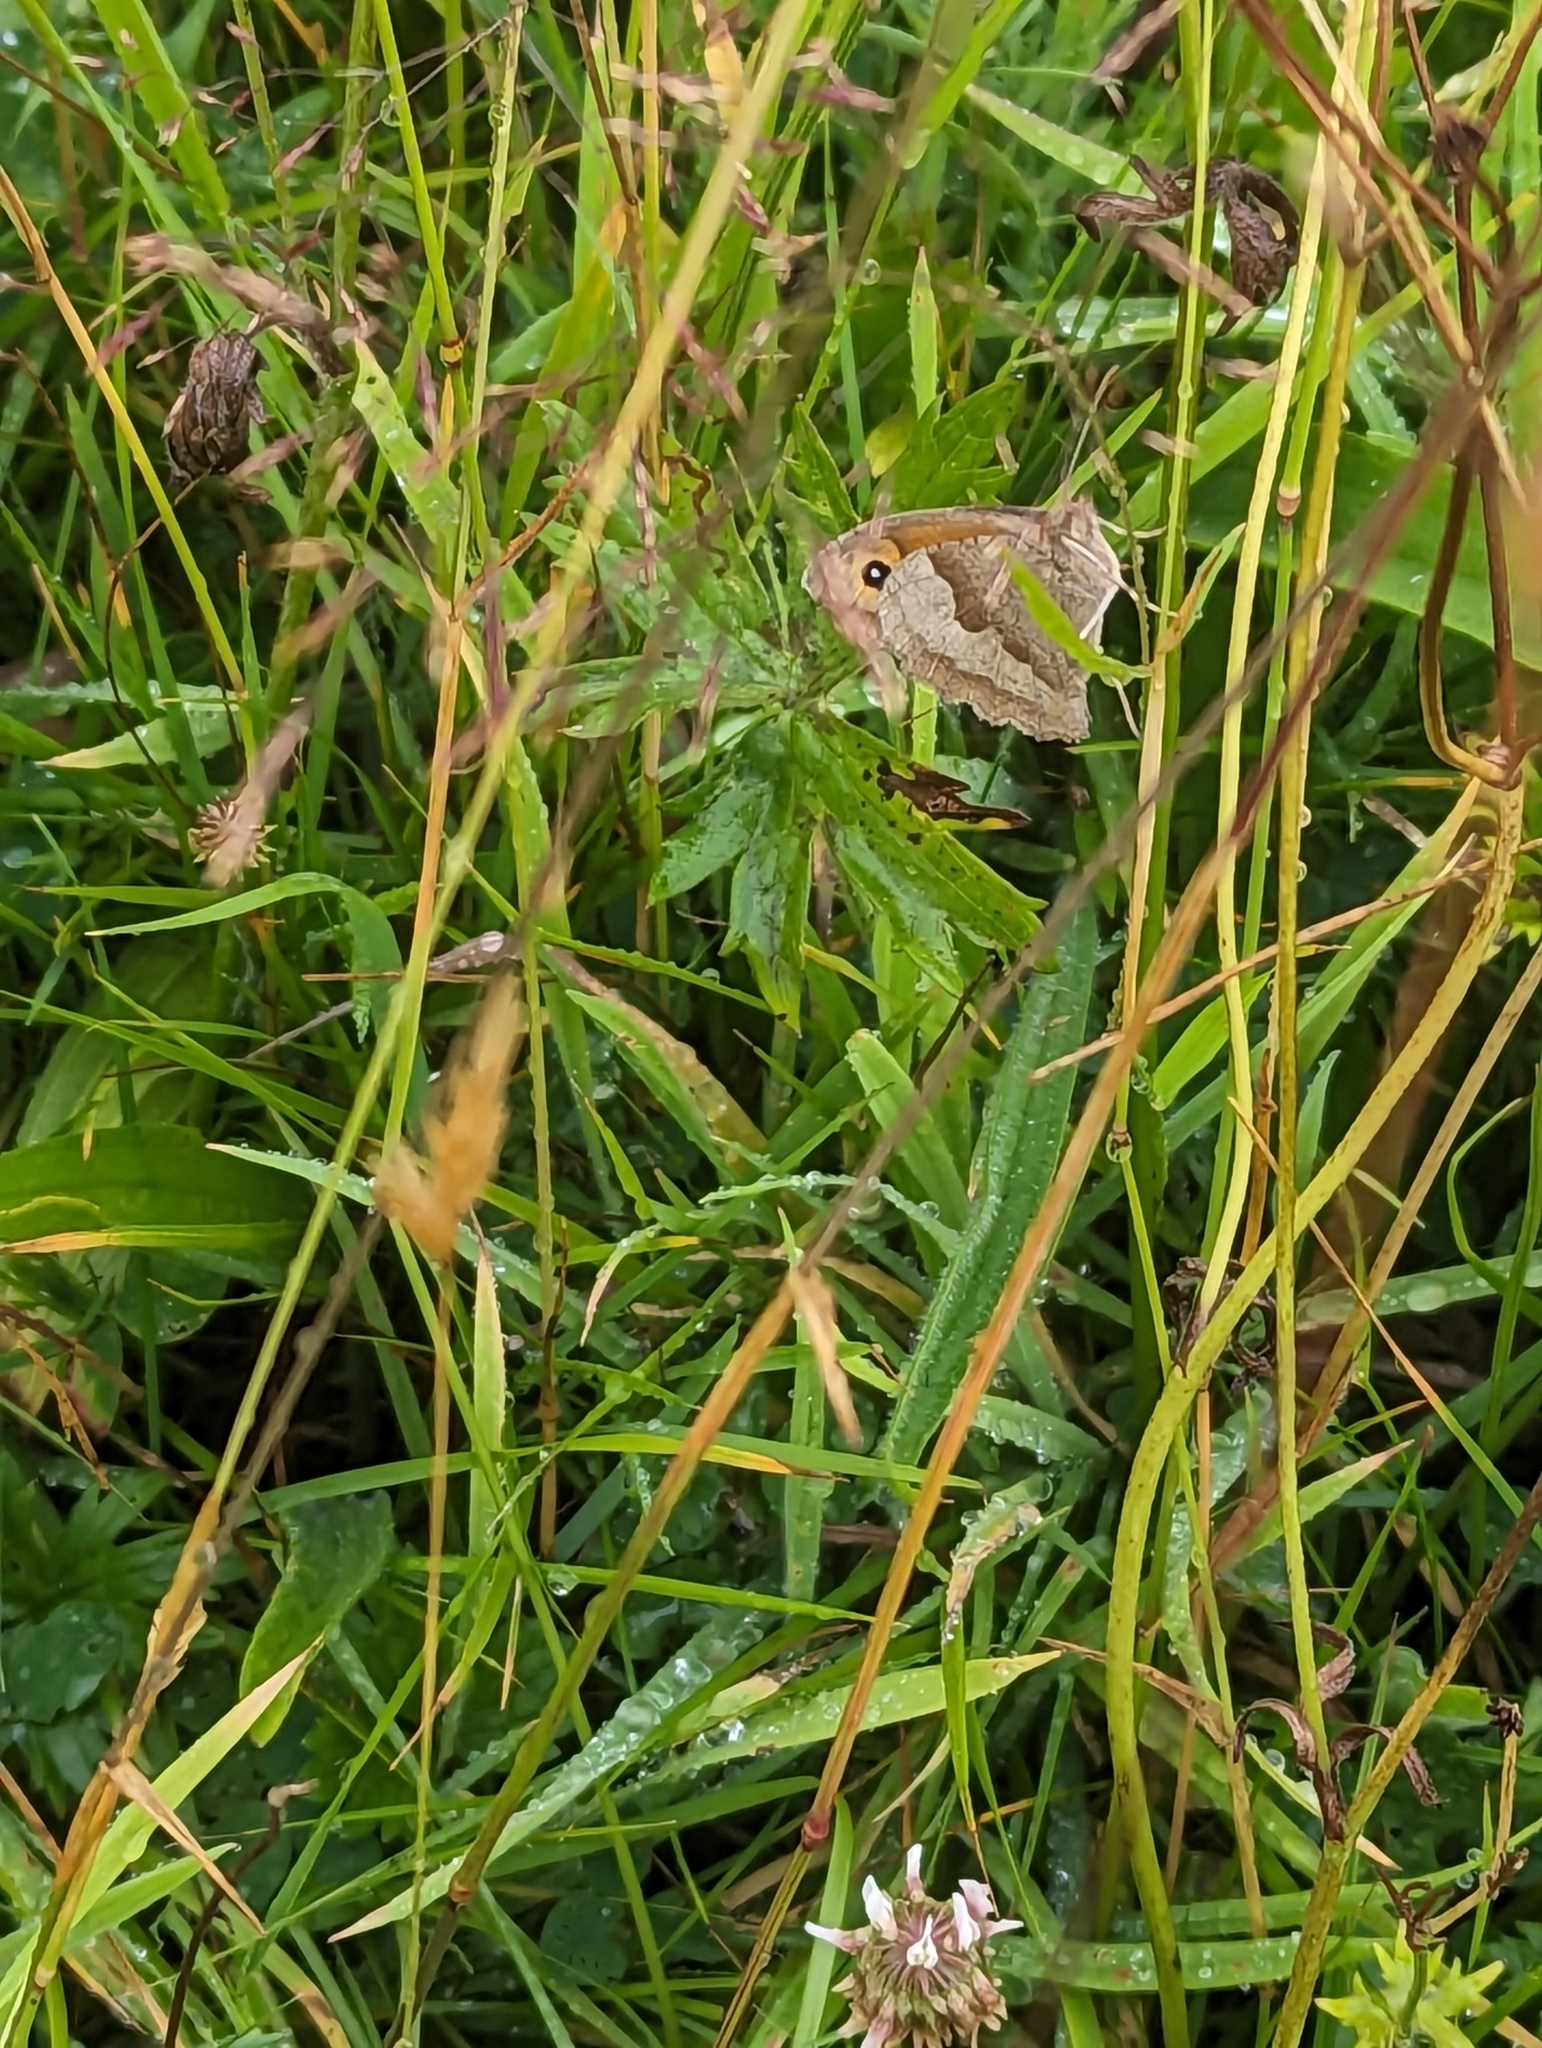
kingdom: Animalia
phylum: Arthropoda
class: Insecta
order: Lepidoptera
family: Nymphalidae
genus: Maniola
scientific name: Maniola jurtina
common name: Meadow brown
